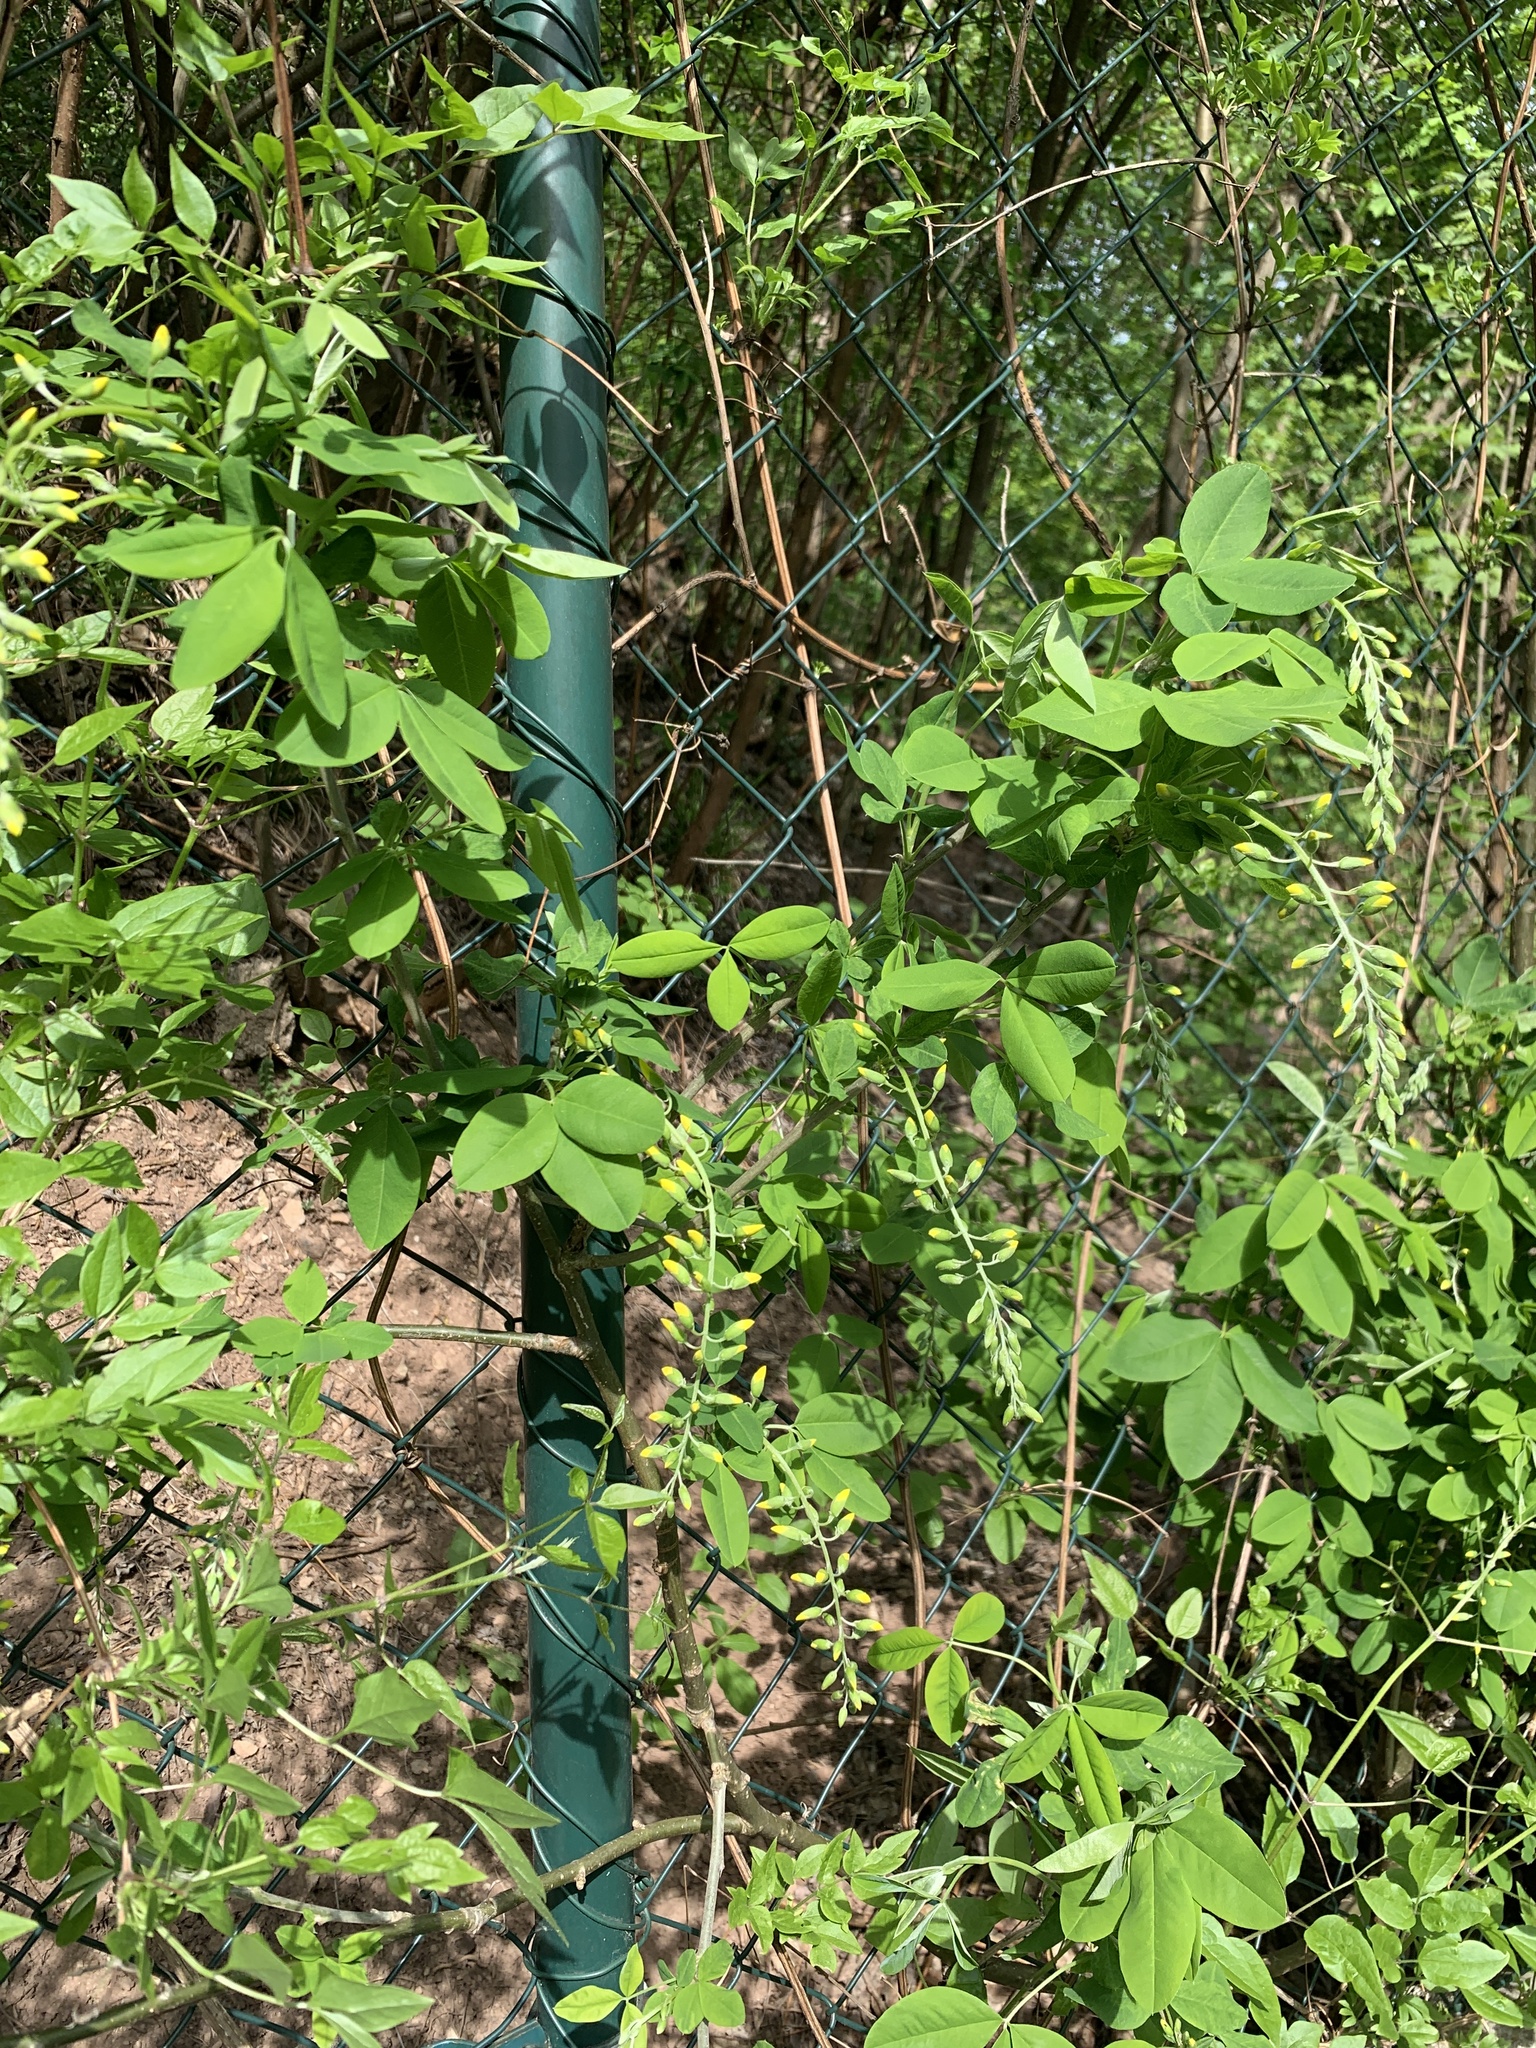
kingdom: Plantae
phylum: Tracheophyta
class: Magnoliopsida
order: Fabales
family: Fabaceae
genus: Laburnum
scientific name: Laburnum anagyroides
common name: Laburnum
